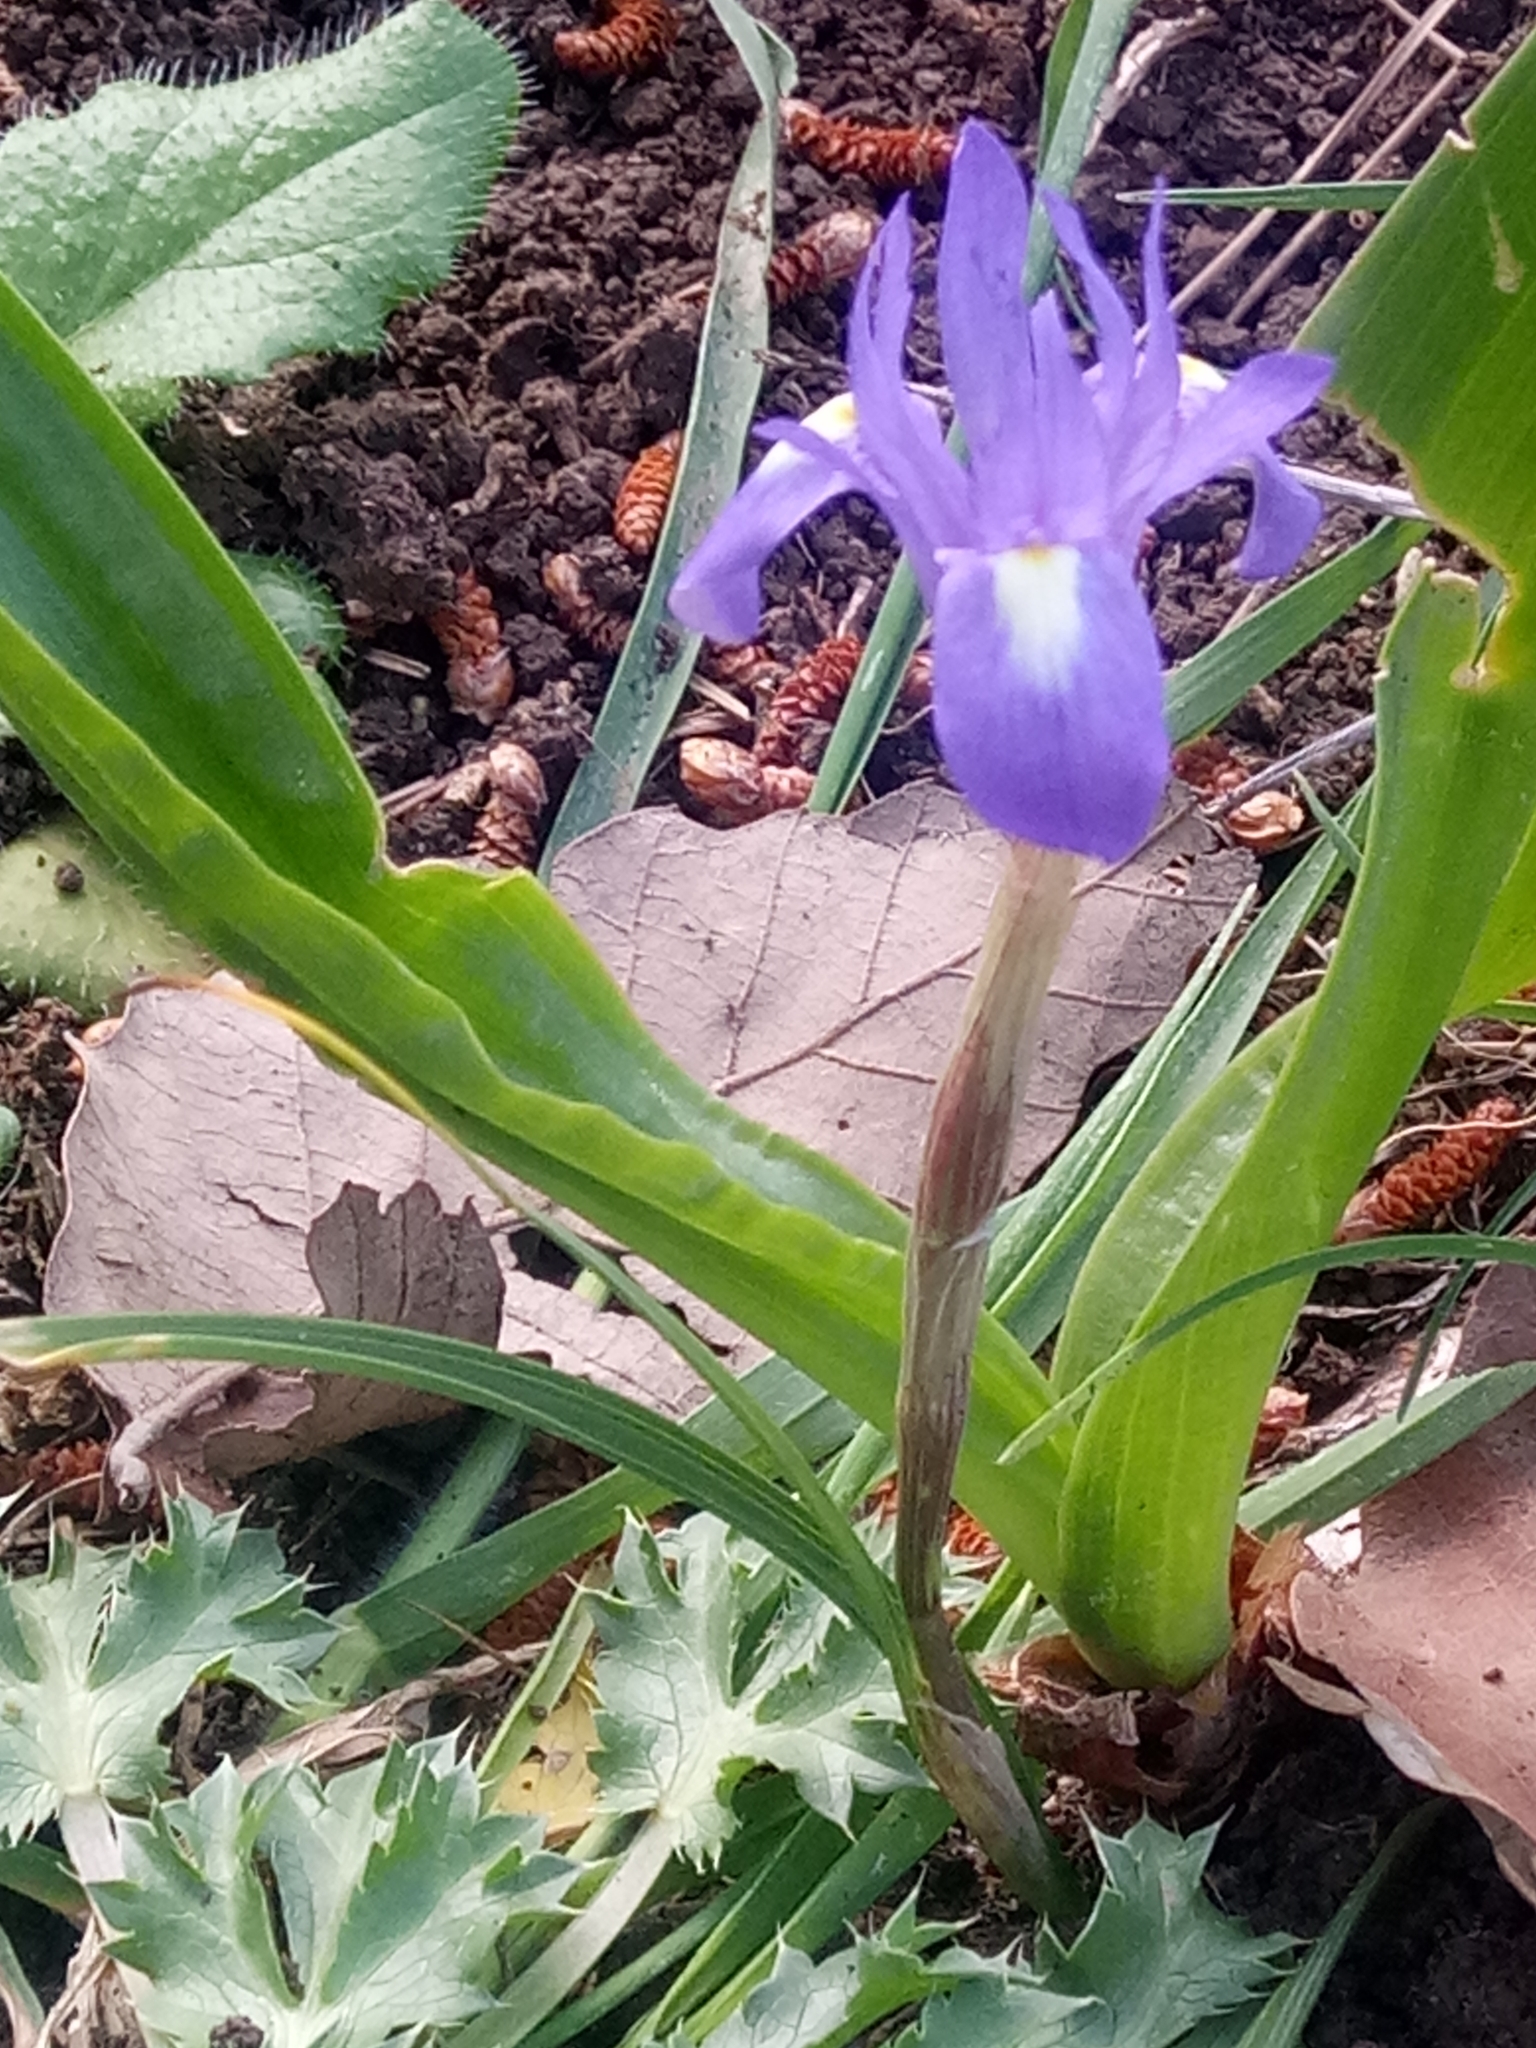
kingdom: Plantae
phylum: Tracheophyta
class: Liliopsida
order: Asparagales
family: Iridaceae
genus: Moraea
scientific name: Moraea sisyrinchium
